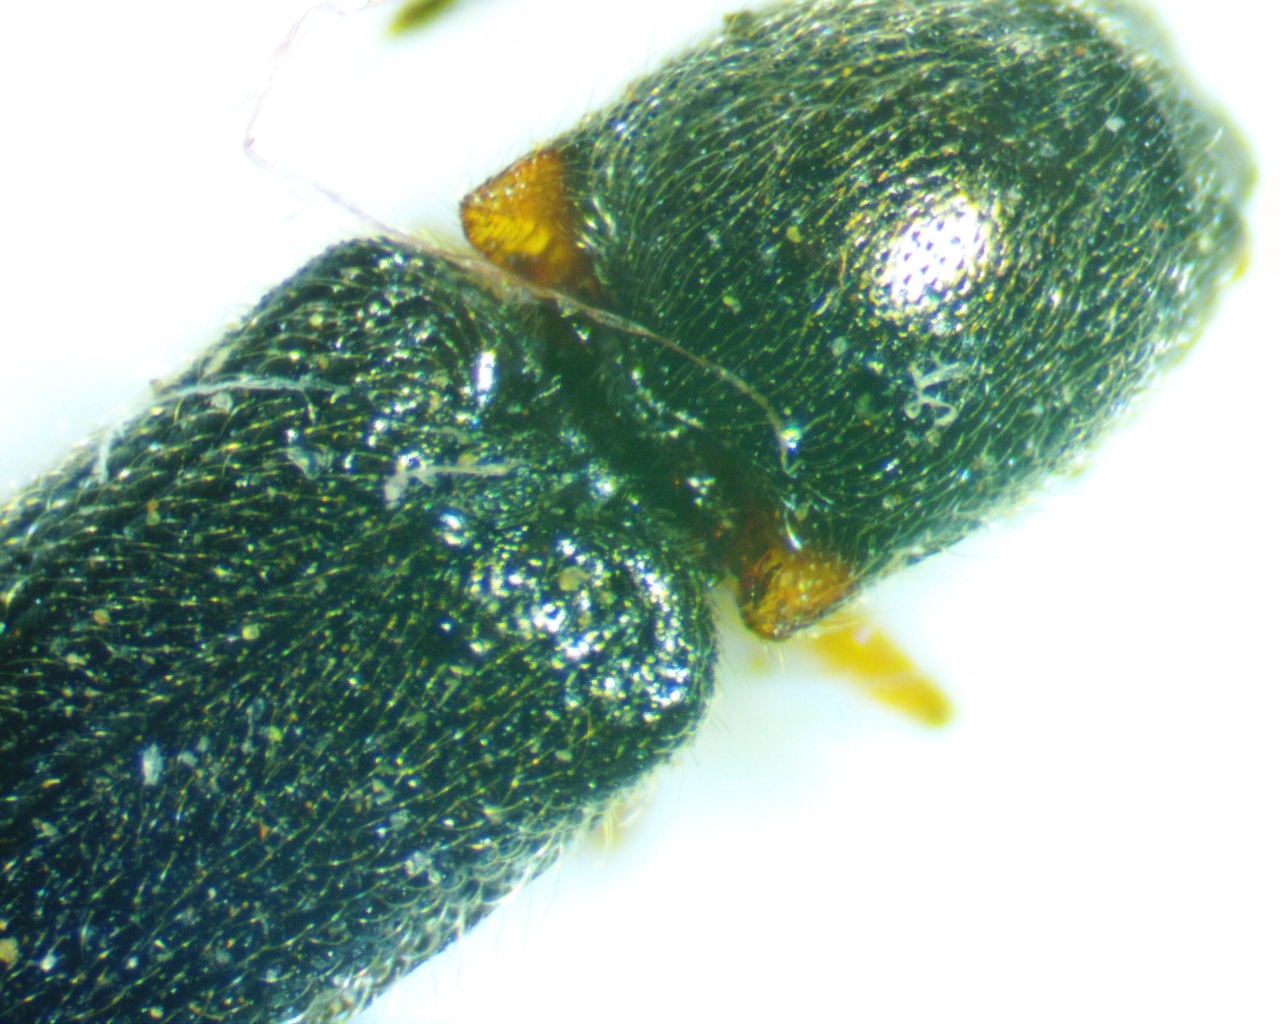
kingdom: Animalia
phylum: Arthropoda
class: Insecta
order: Coleoptera
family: Elateridae
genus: Limonius
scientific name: Limonius basilaris
